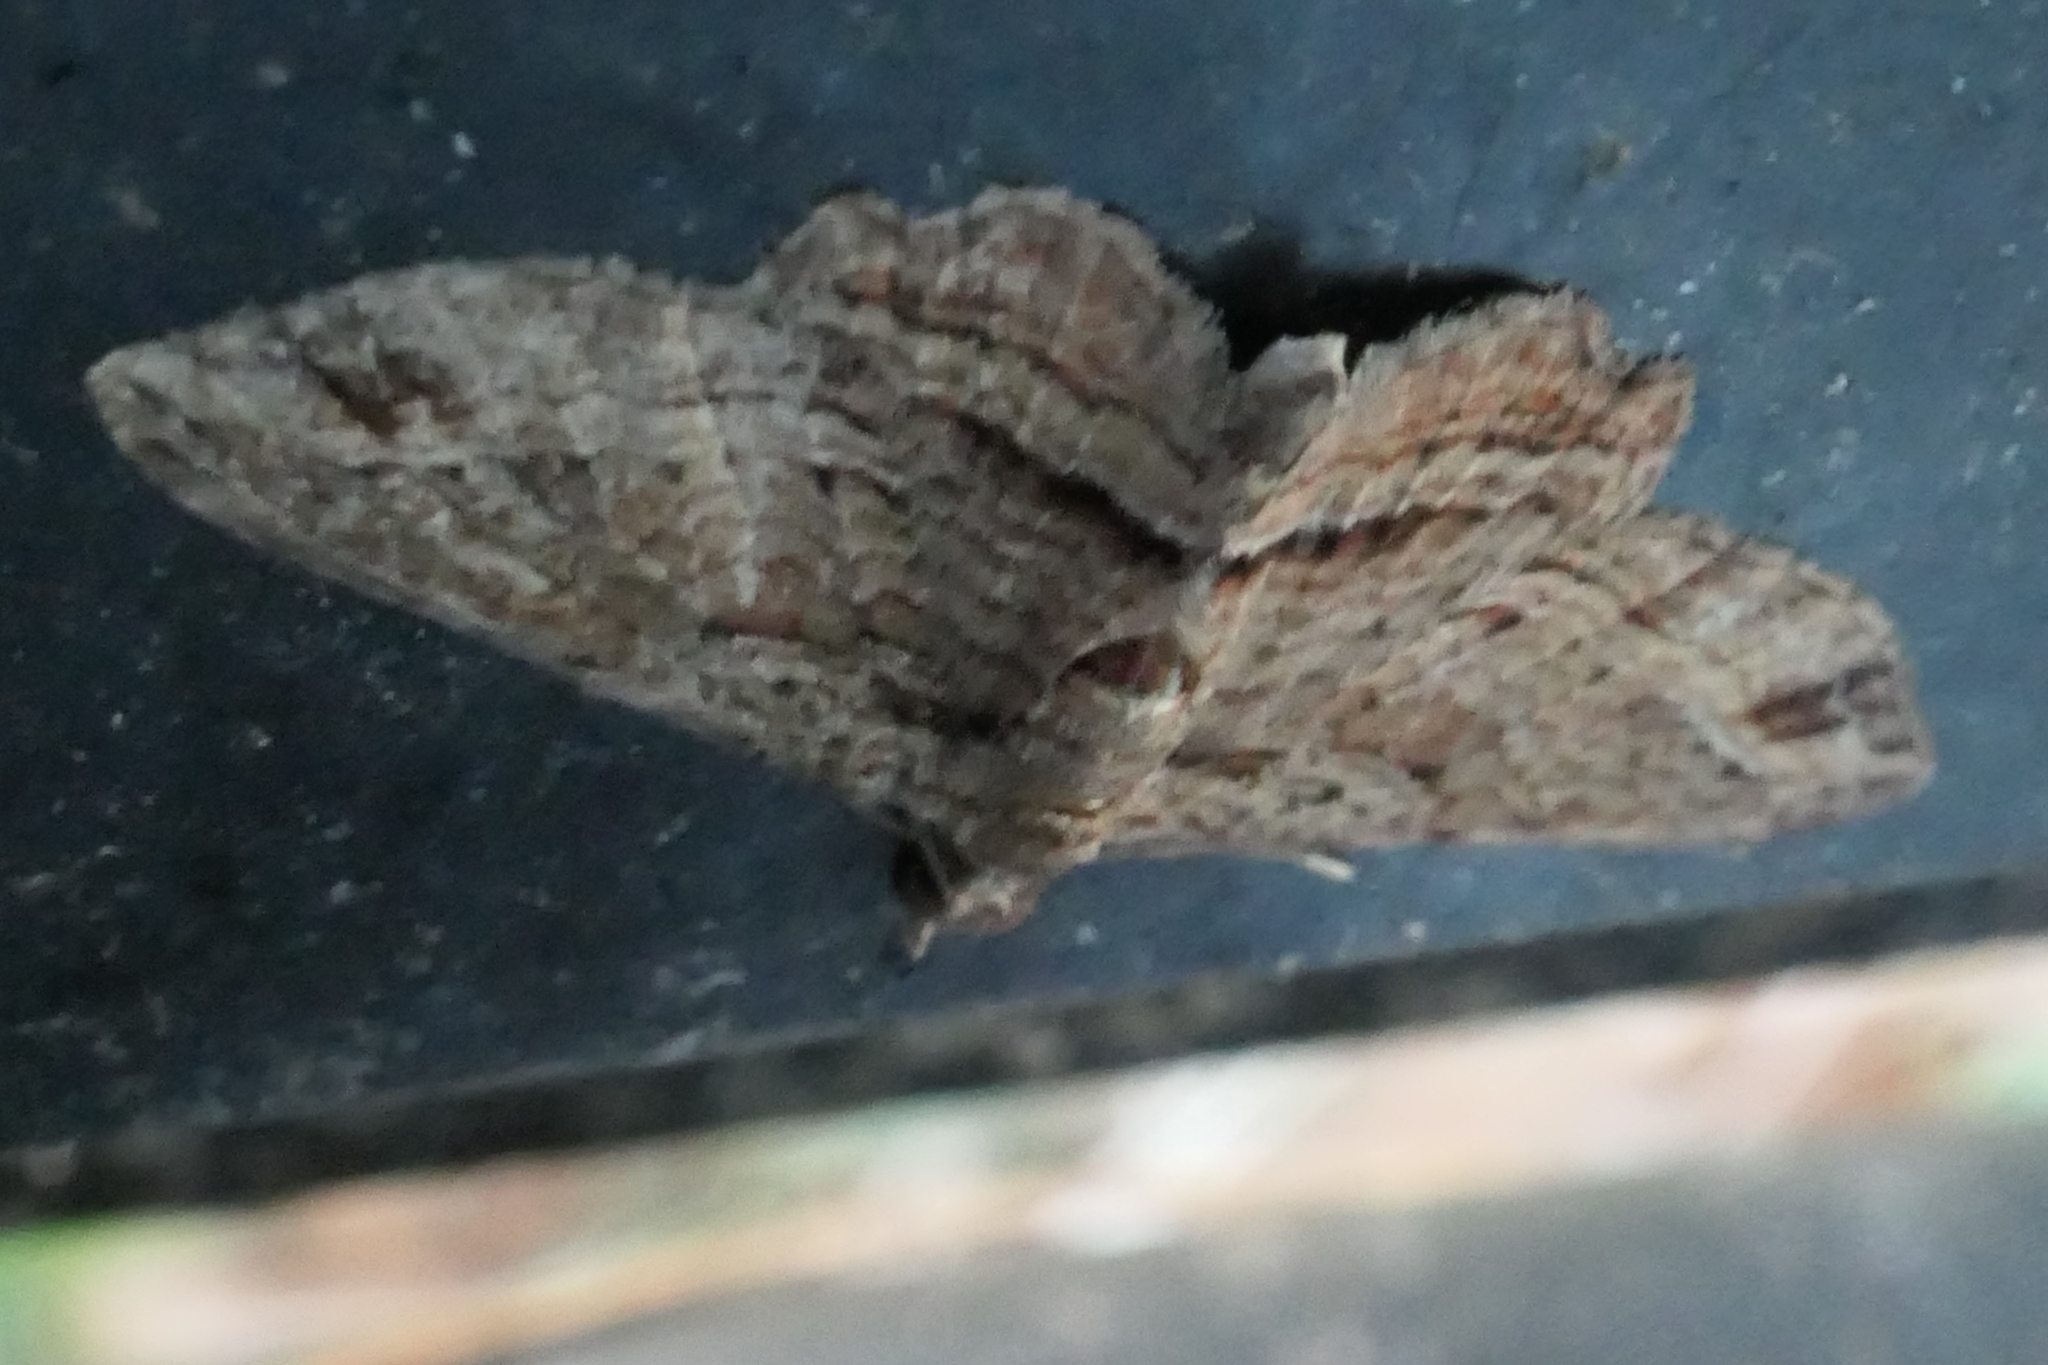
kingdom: Animalia
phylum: Arthropoda
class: Insecta
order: Lepidoptera
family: Geometridae
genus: Chloroclystis
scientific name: Chloroclystis filata
